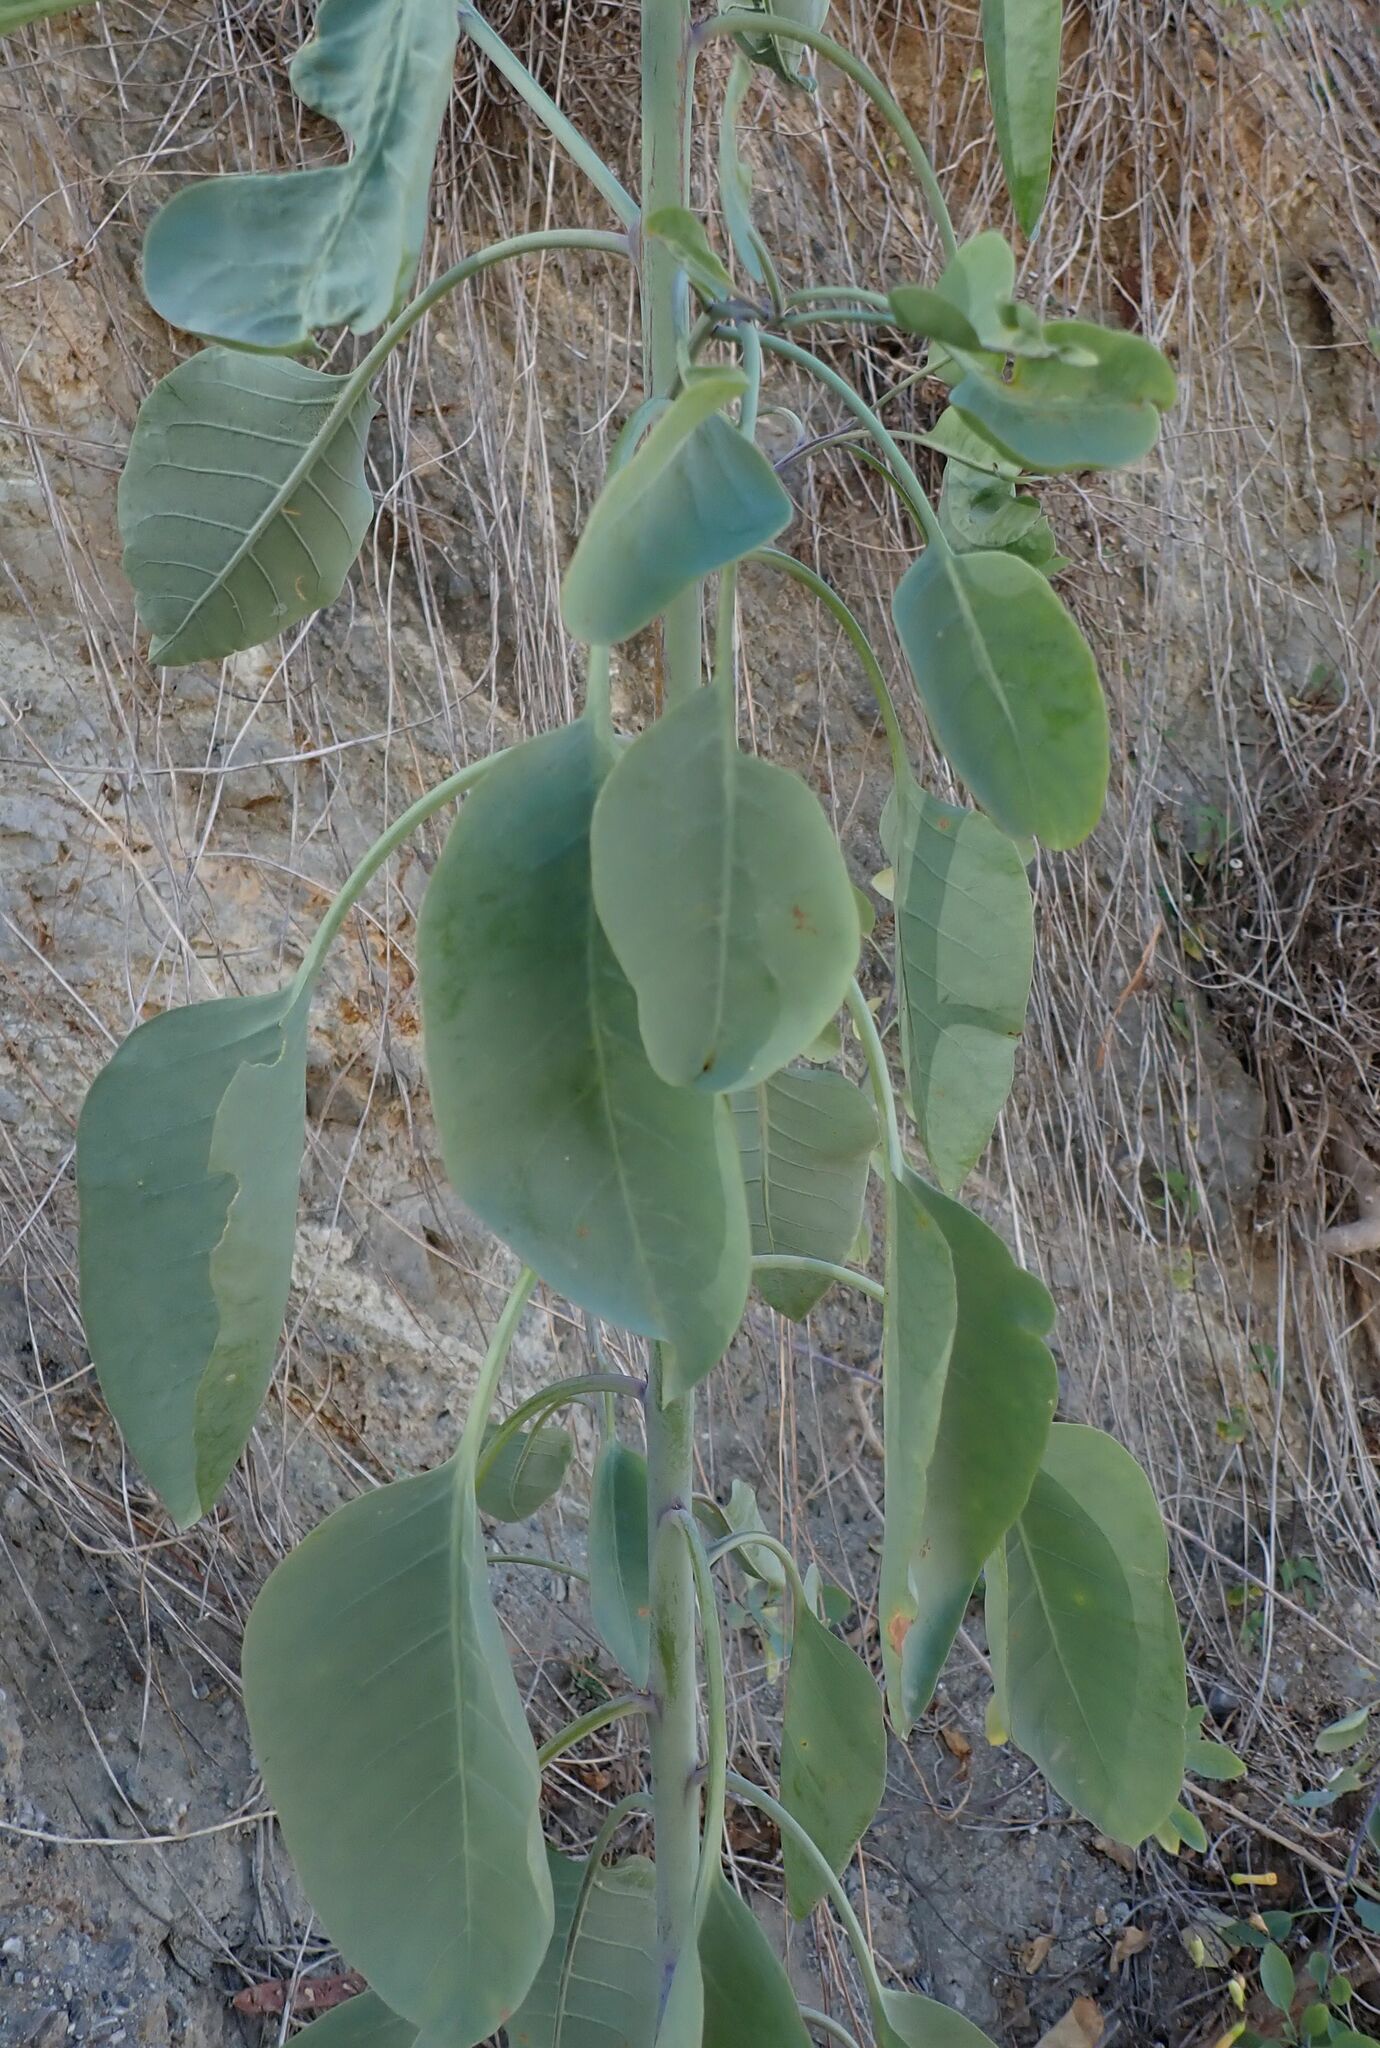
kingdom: Plantae
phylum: Tracheophyta
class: Magnoliopsida
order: Solanales
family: Solanaceae
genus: Nicotiana
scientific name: Nicotiana glauca
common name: Tree tobacco
